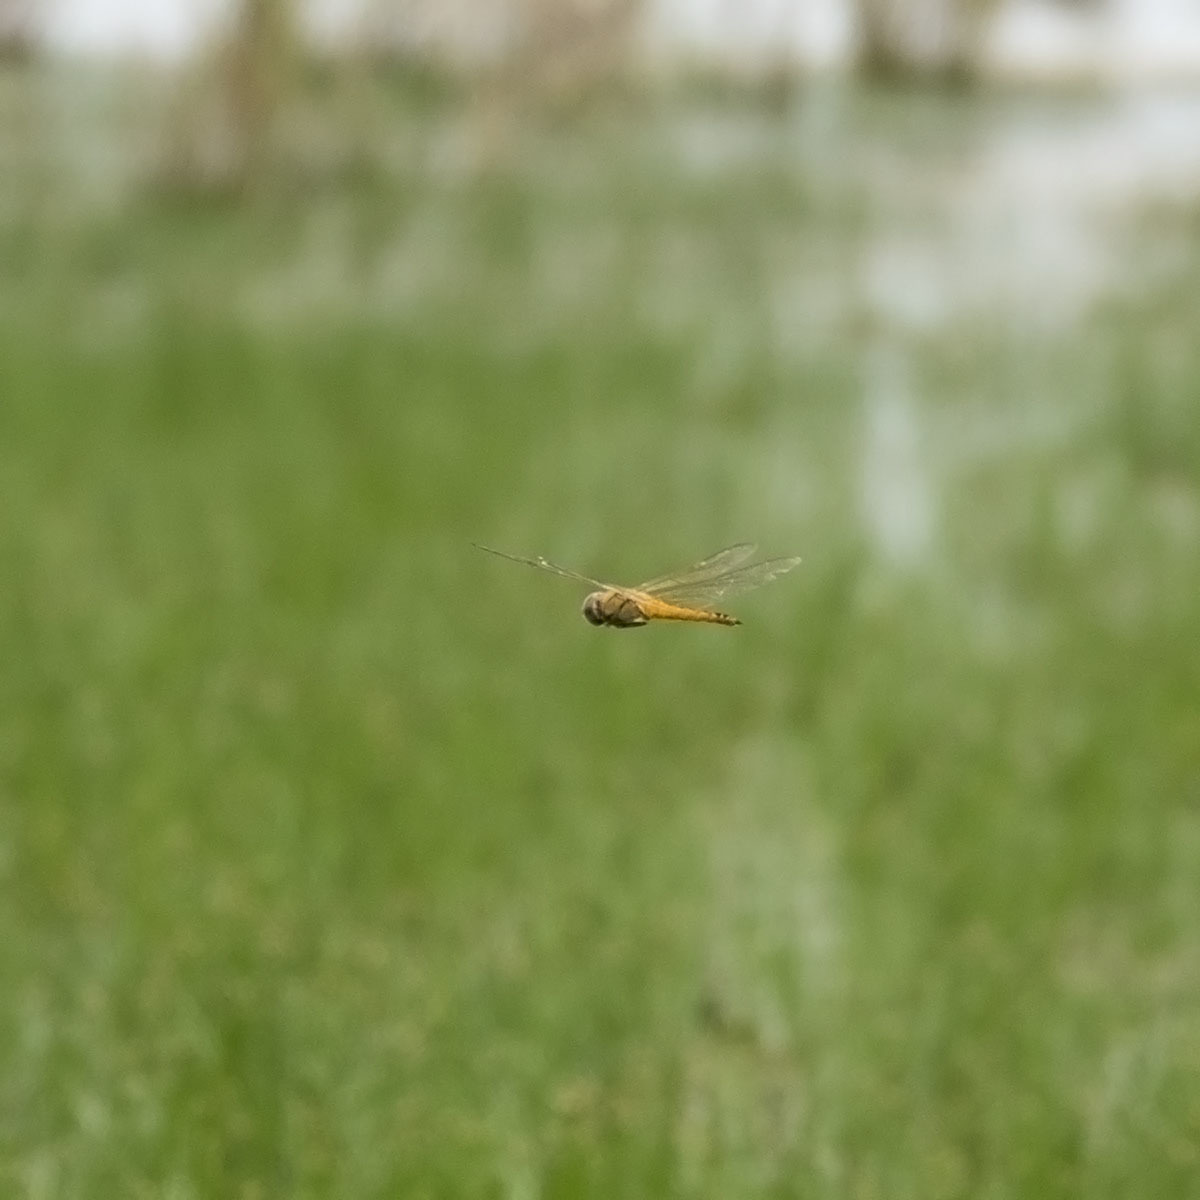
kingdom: Animalia
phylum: Arthropoda
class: Insecta
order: Odonata
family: Libellulidae
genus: Pantala
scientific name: Pantala flavescens
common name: Wandering glider
